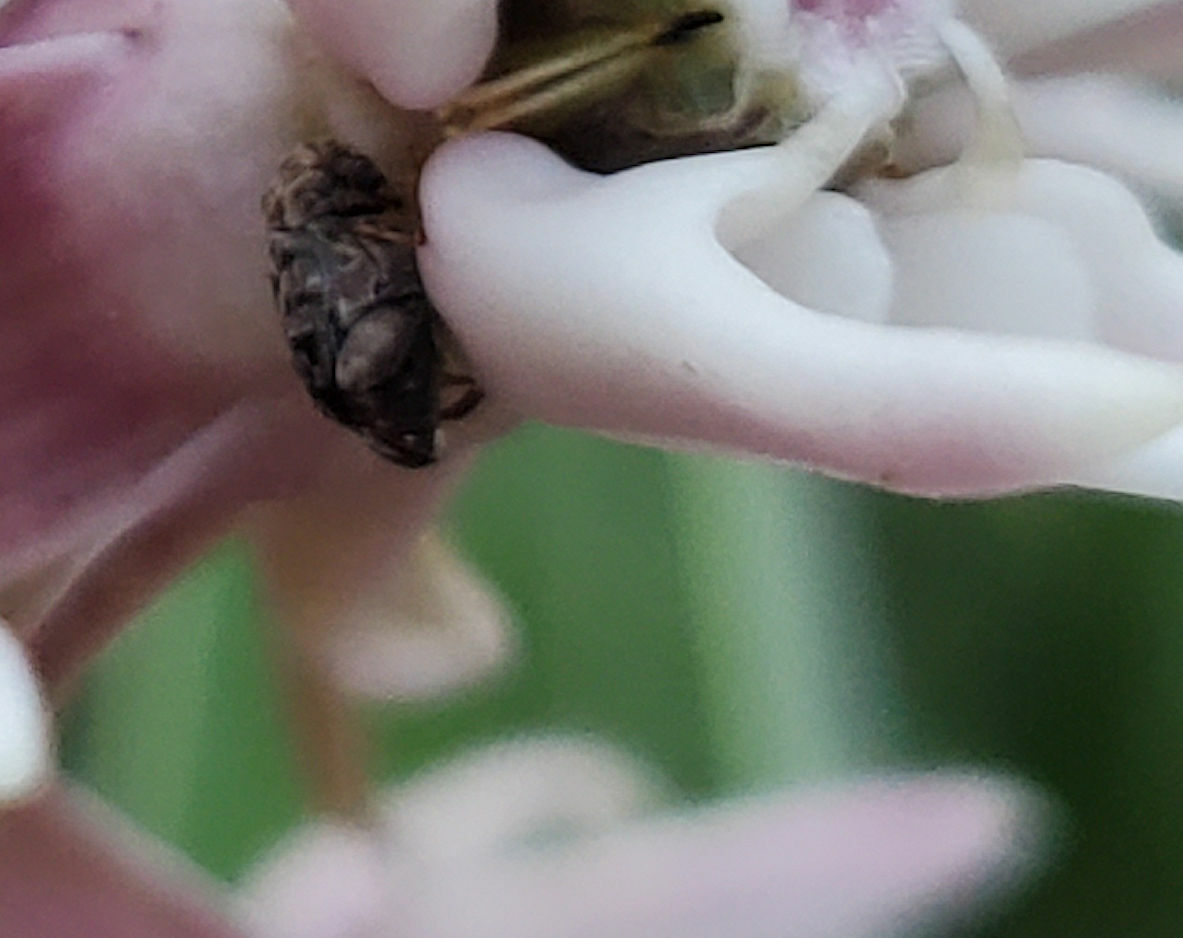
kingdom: Animalia
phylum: Arthropoda
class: Insecta
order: Coleoptera
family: Chrysomelidae
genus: Gibbobruchus
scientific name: Gibbobruchus mimus
